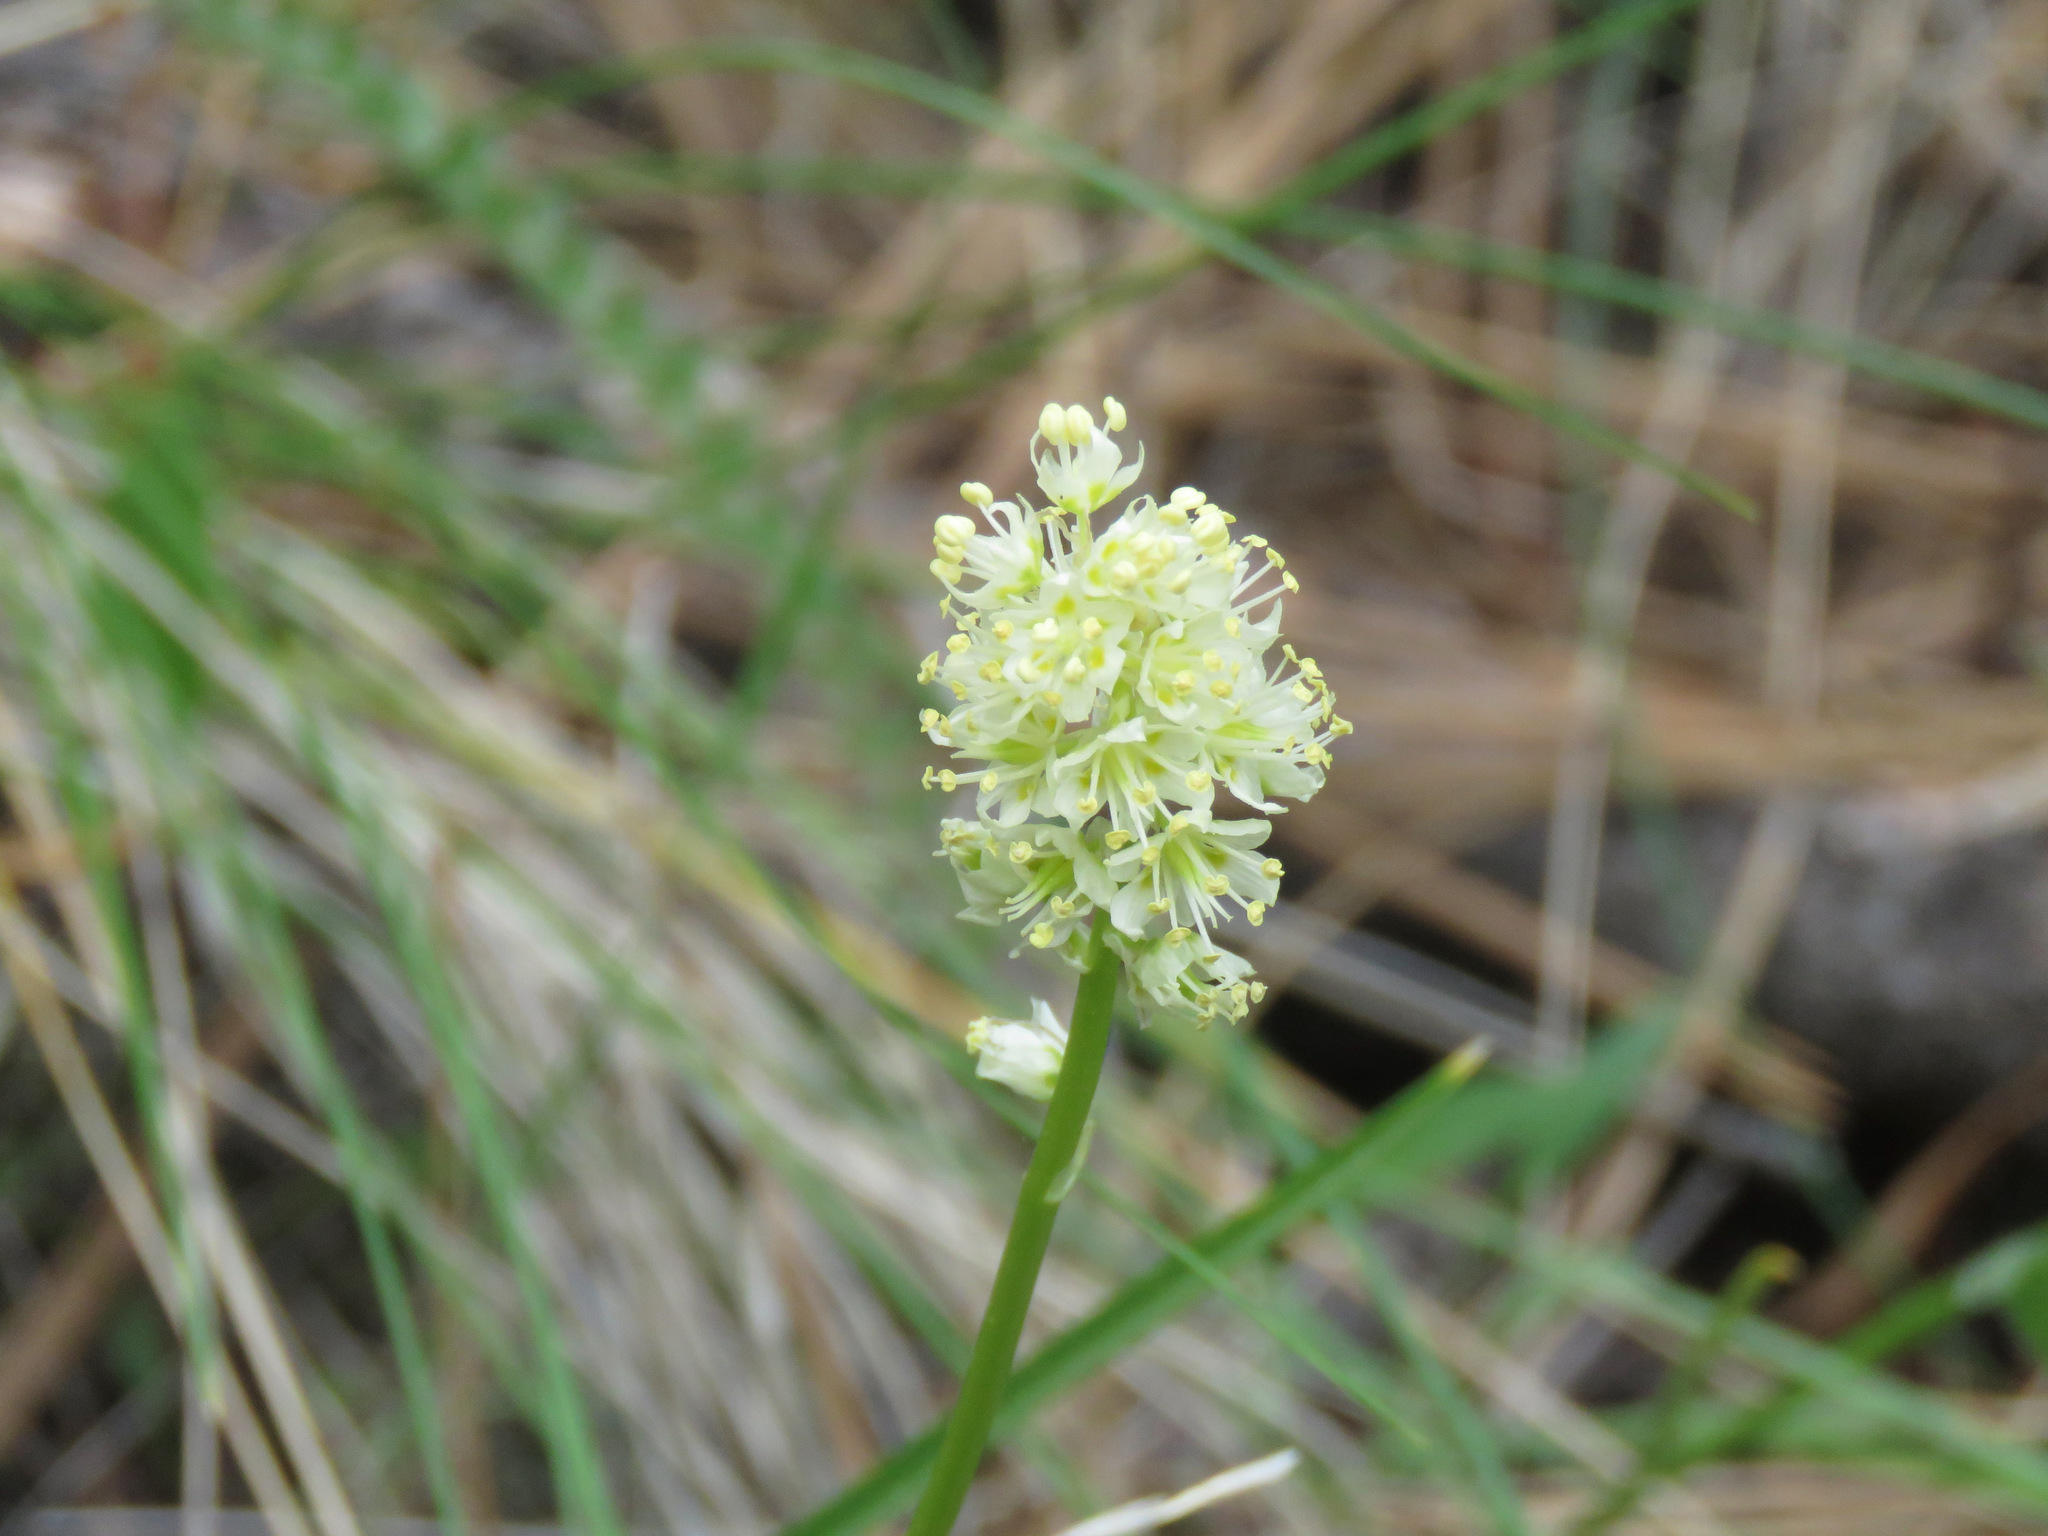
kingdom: Plantae
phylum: Tracheophyta
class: Liliopsida
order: Liliales
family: Melanthiaceae
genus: Toxicoscordion
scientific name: Toxicoscordion venenosum
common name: Meadow death camas
